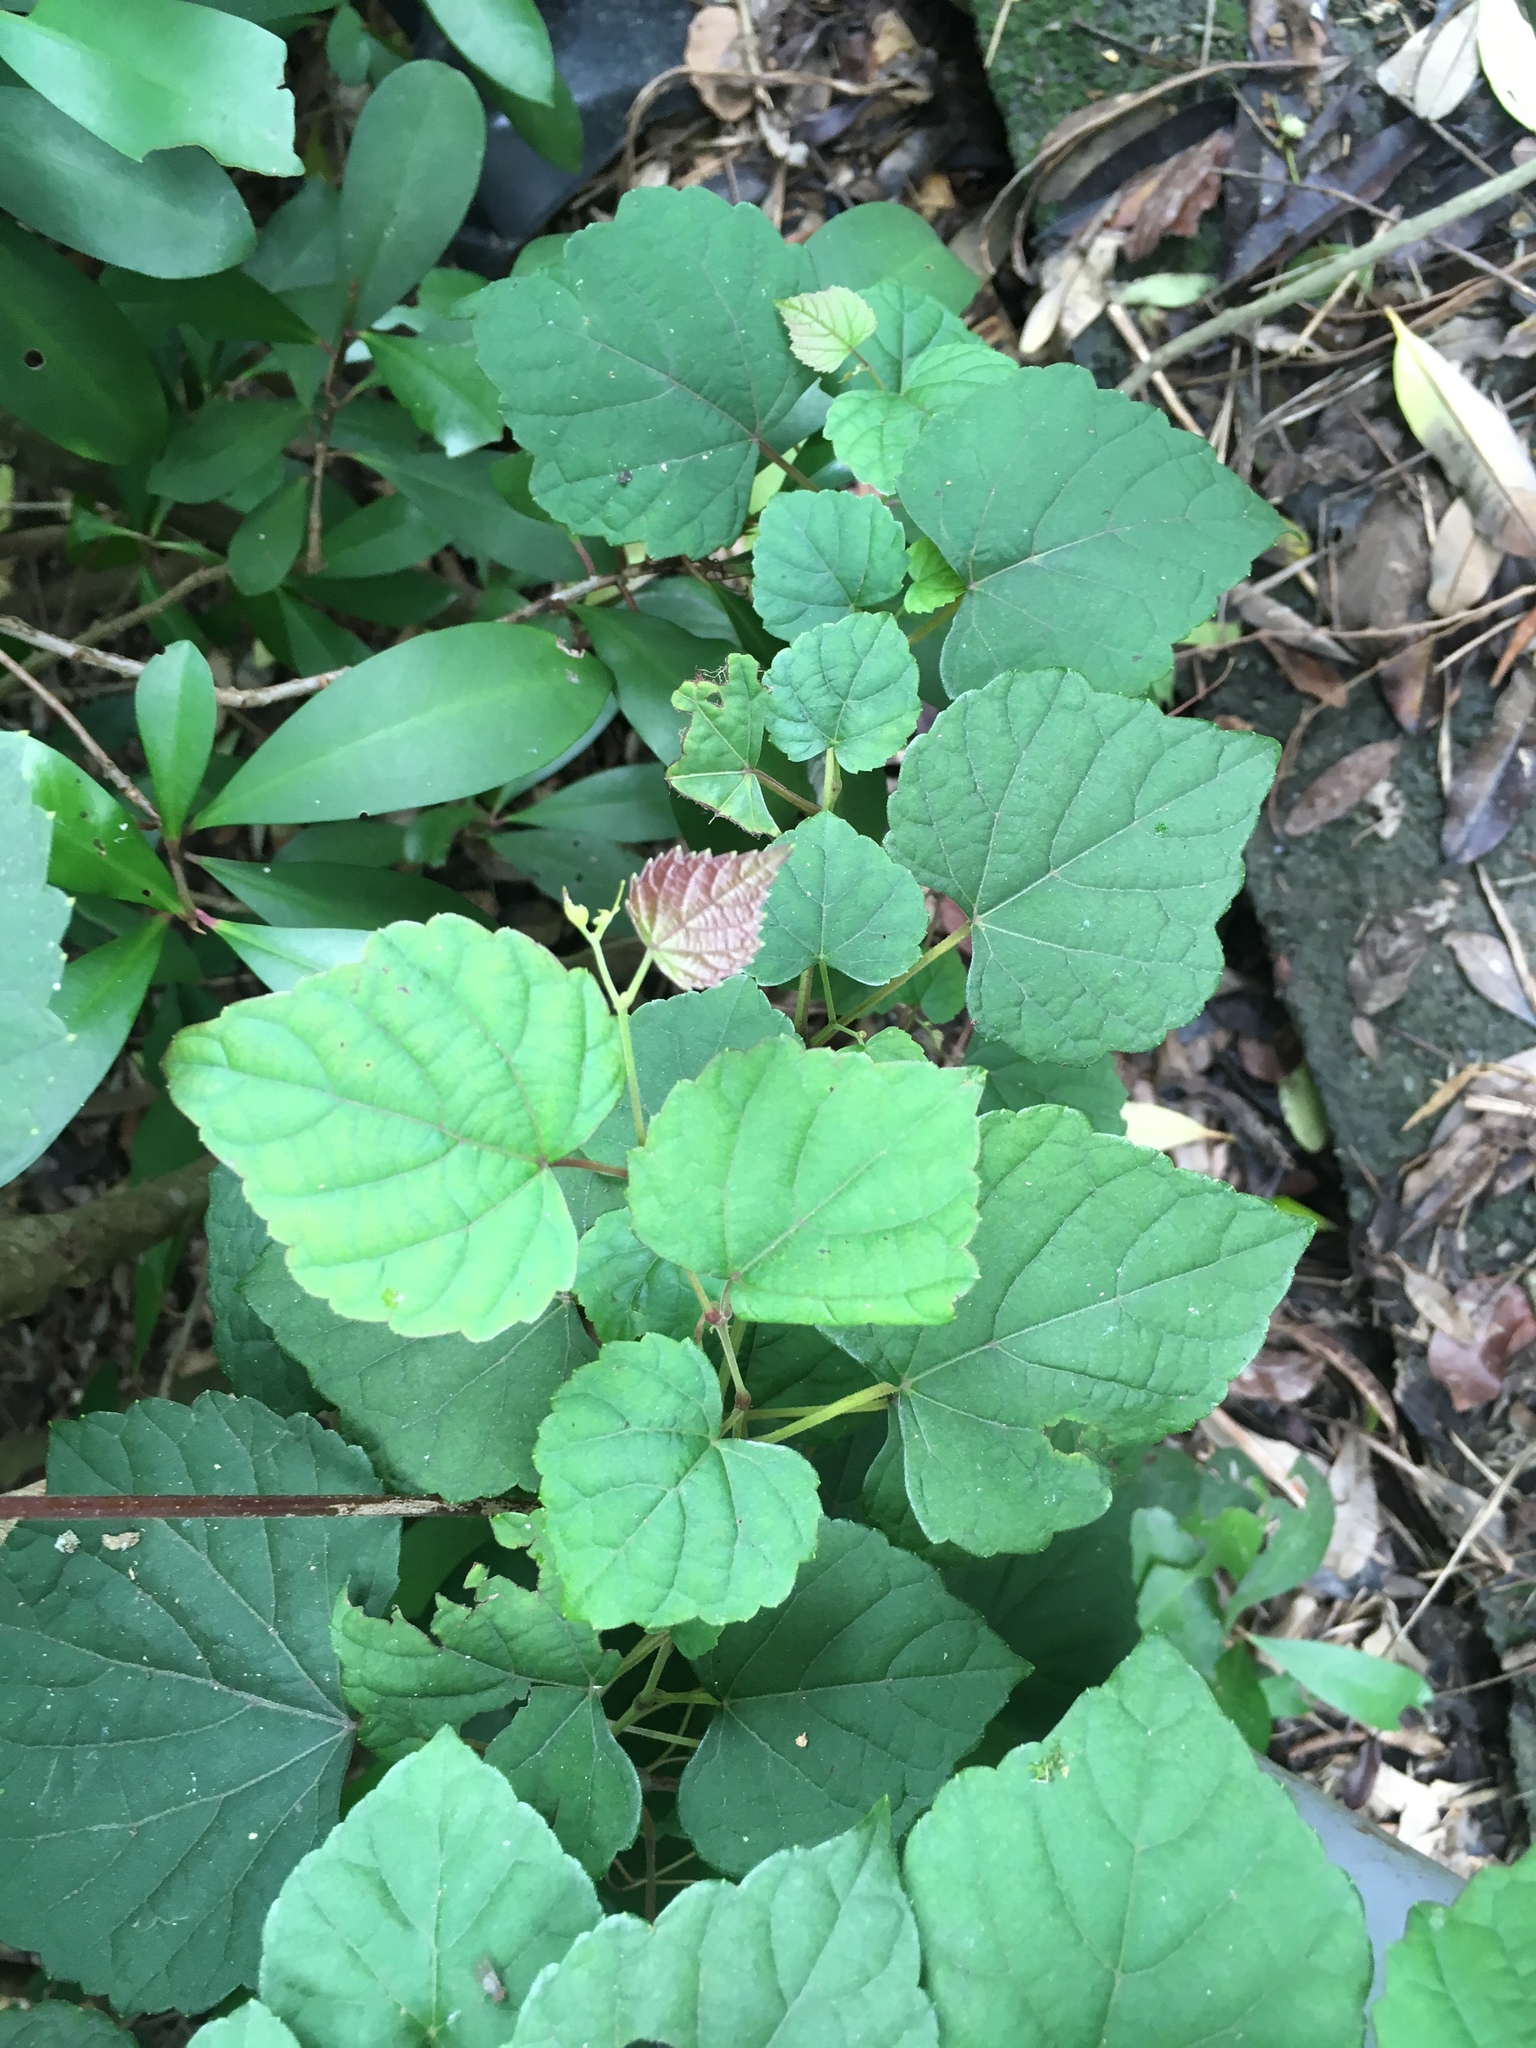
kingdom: Plantae
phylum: Tracheophyta
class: Magnoliopsida
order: Vitales
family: Vitaceae
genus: Ampelopsis
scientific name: Ampelopsis glandulosa
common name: Amur peppervine
